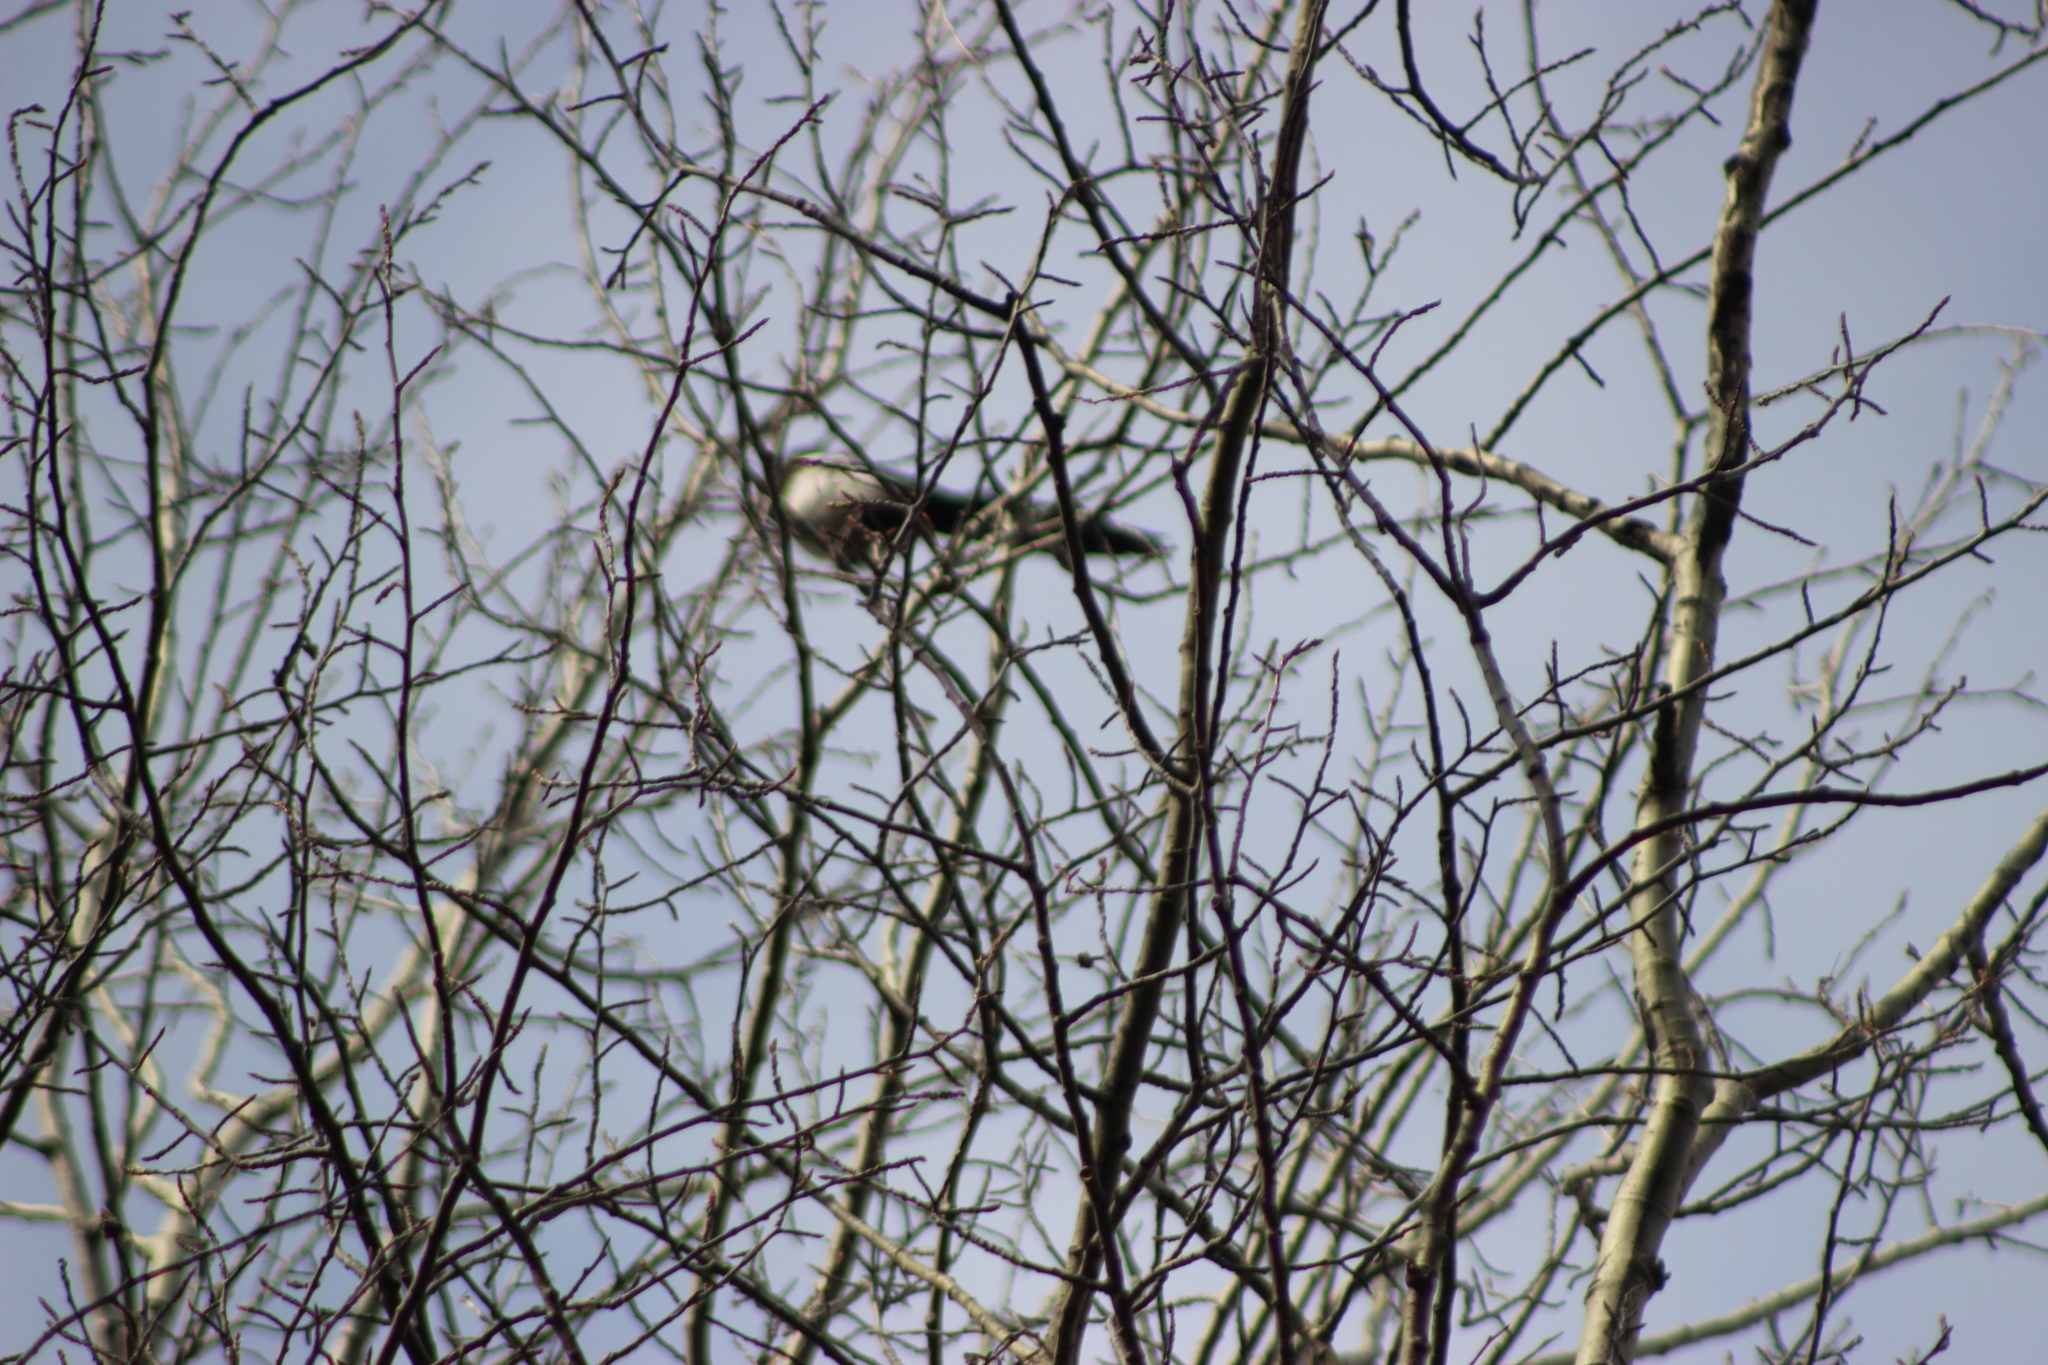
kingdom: Animalia
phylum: Chordata
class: Aves
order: Passeriformes
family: Corvidae
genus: Pica
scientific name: Pica pica
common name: Eurasian magpie
